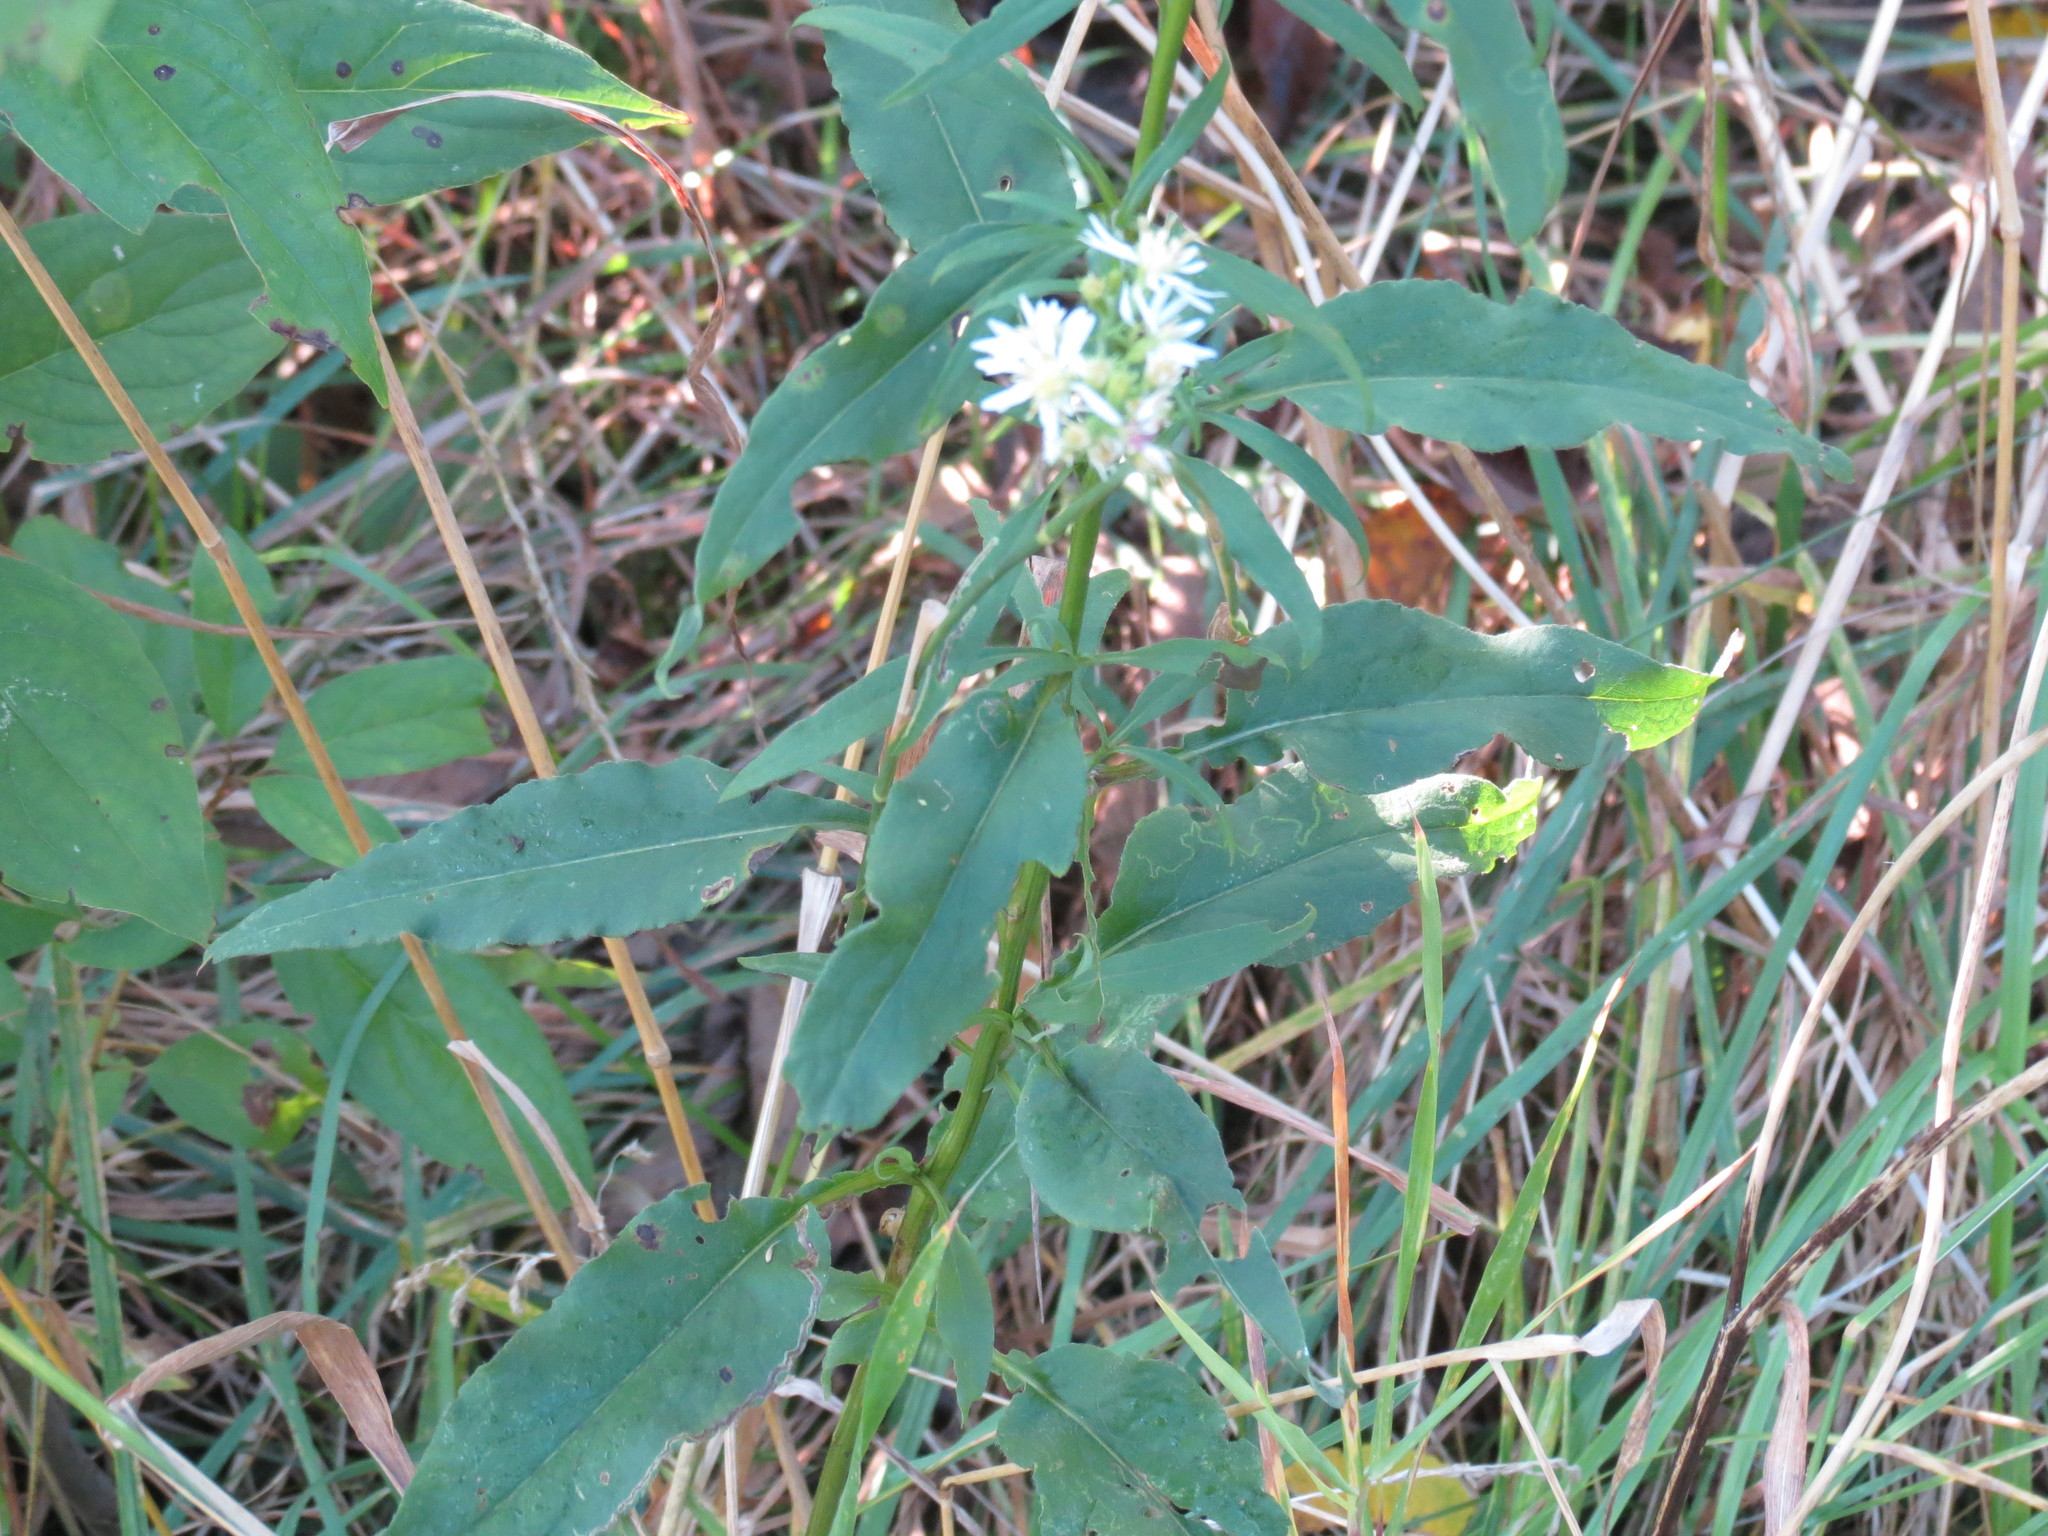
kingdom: Plantae
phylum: Tracheophyta
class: Magnoliopsida
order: Asterales
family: Asteraceae
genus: Symphyotrichum
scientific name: Symphyotrichum urophyllum
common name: Arrow-leaved aster
